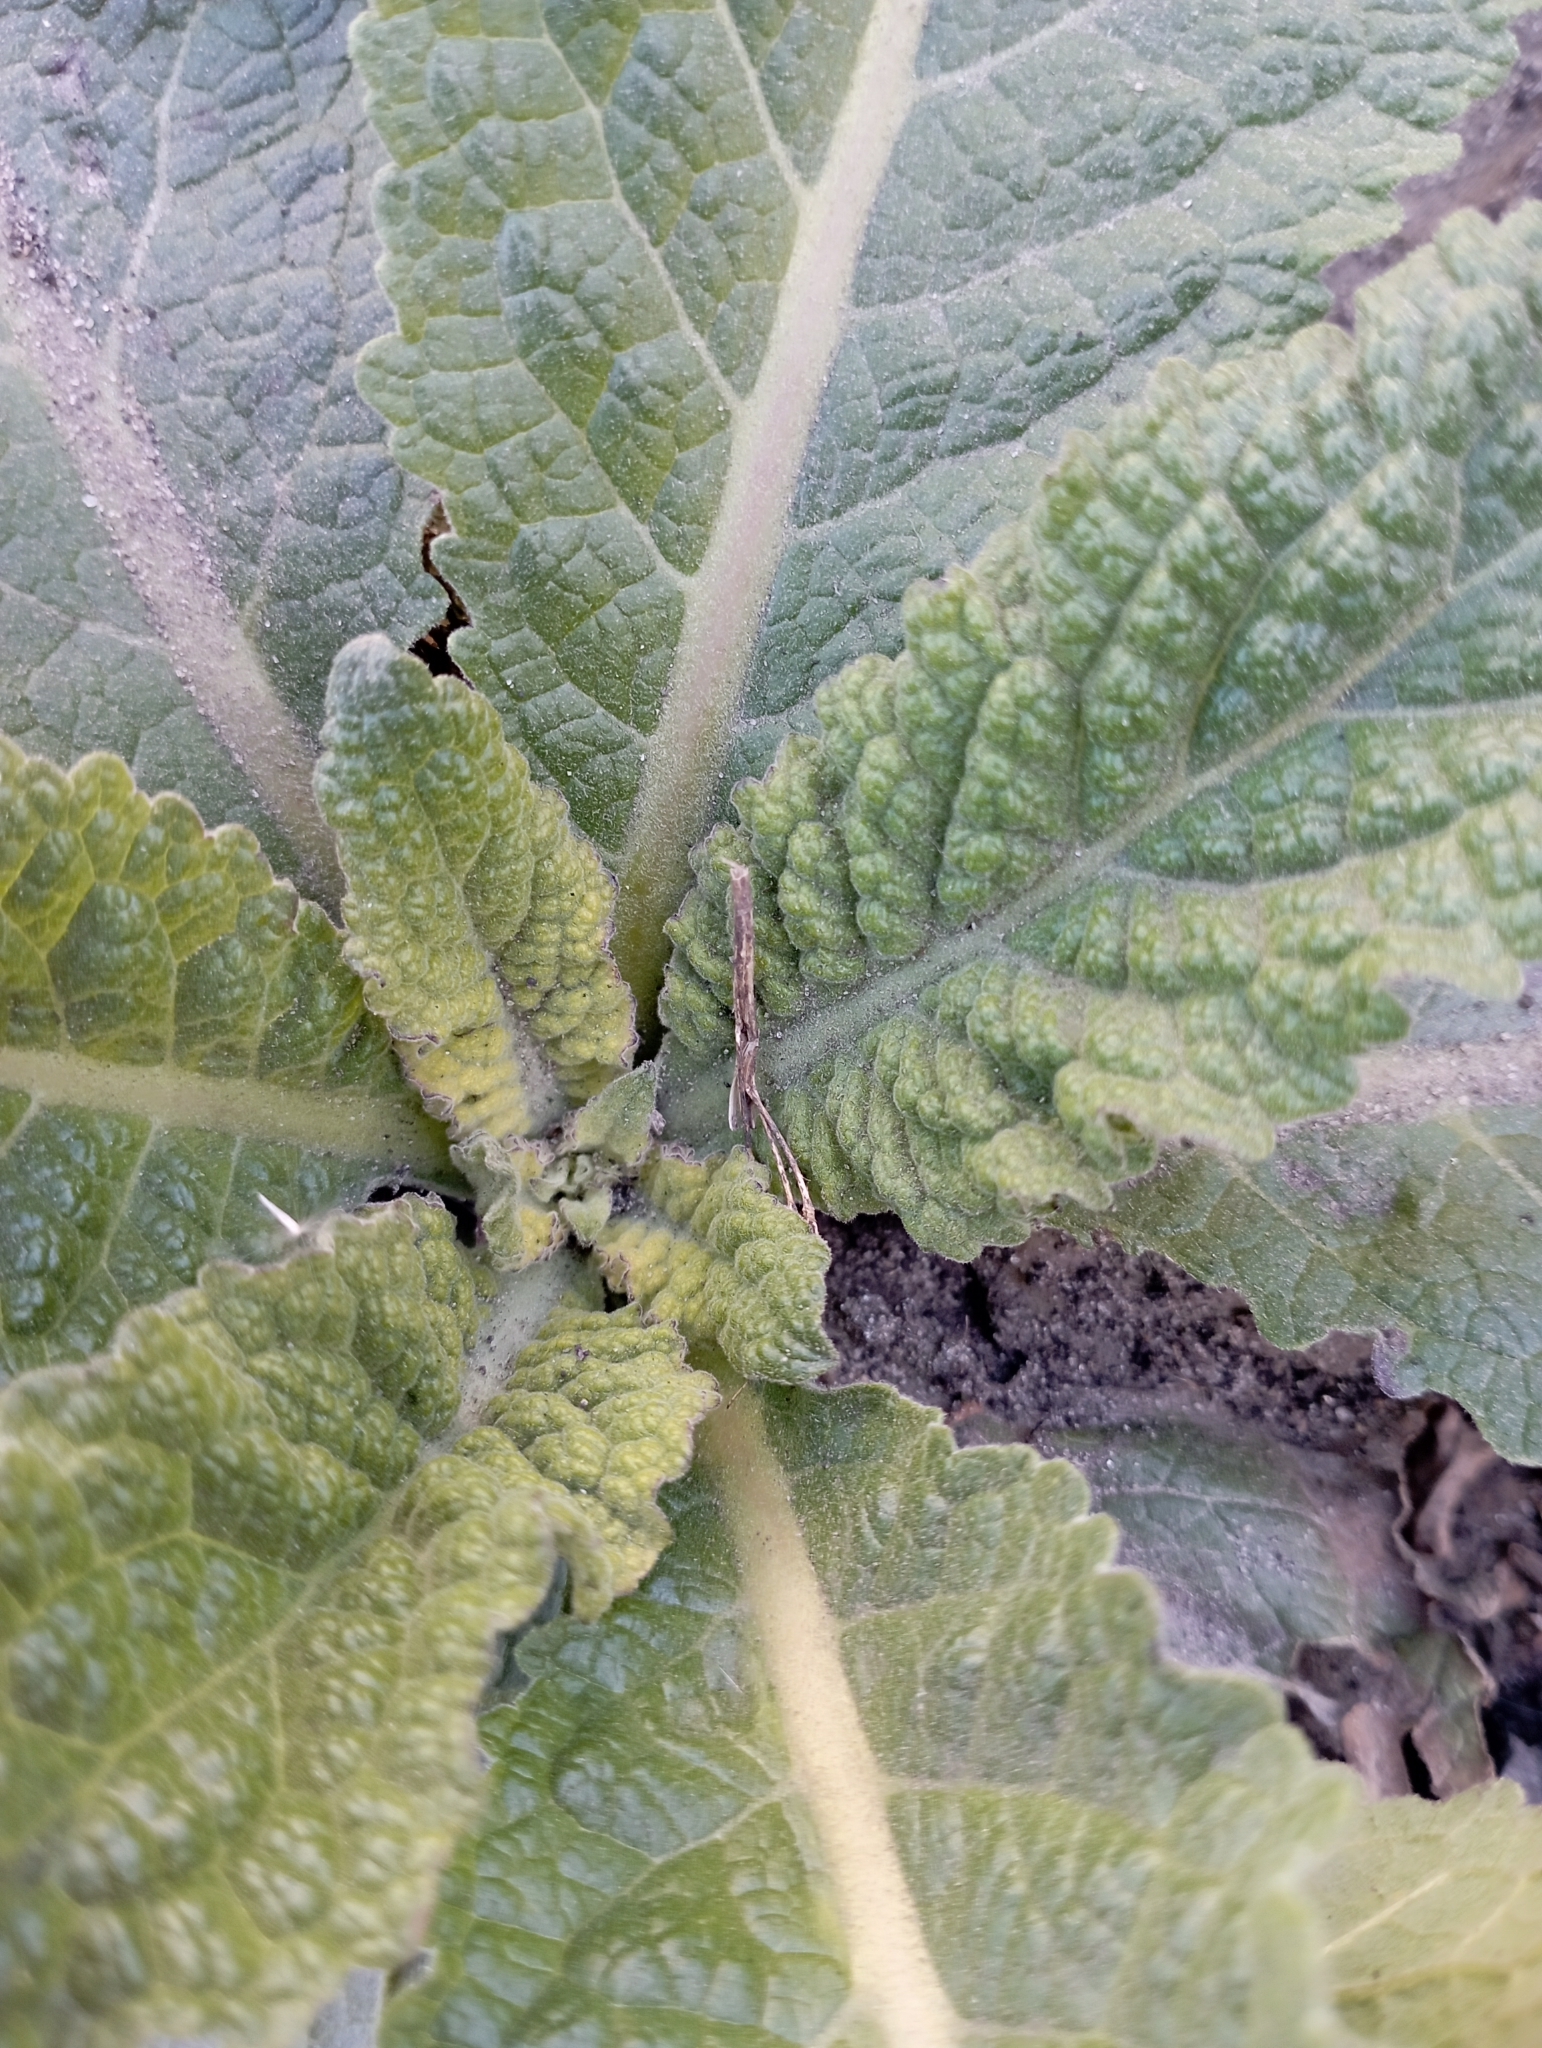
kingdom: Plantae
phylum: Tracheophyta
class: Magnoliopsida
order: Lamiales
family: Scrophulariaceae
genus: Verbascum
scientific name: Verbascum lychnitis
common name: White mullein
